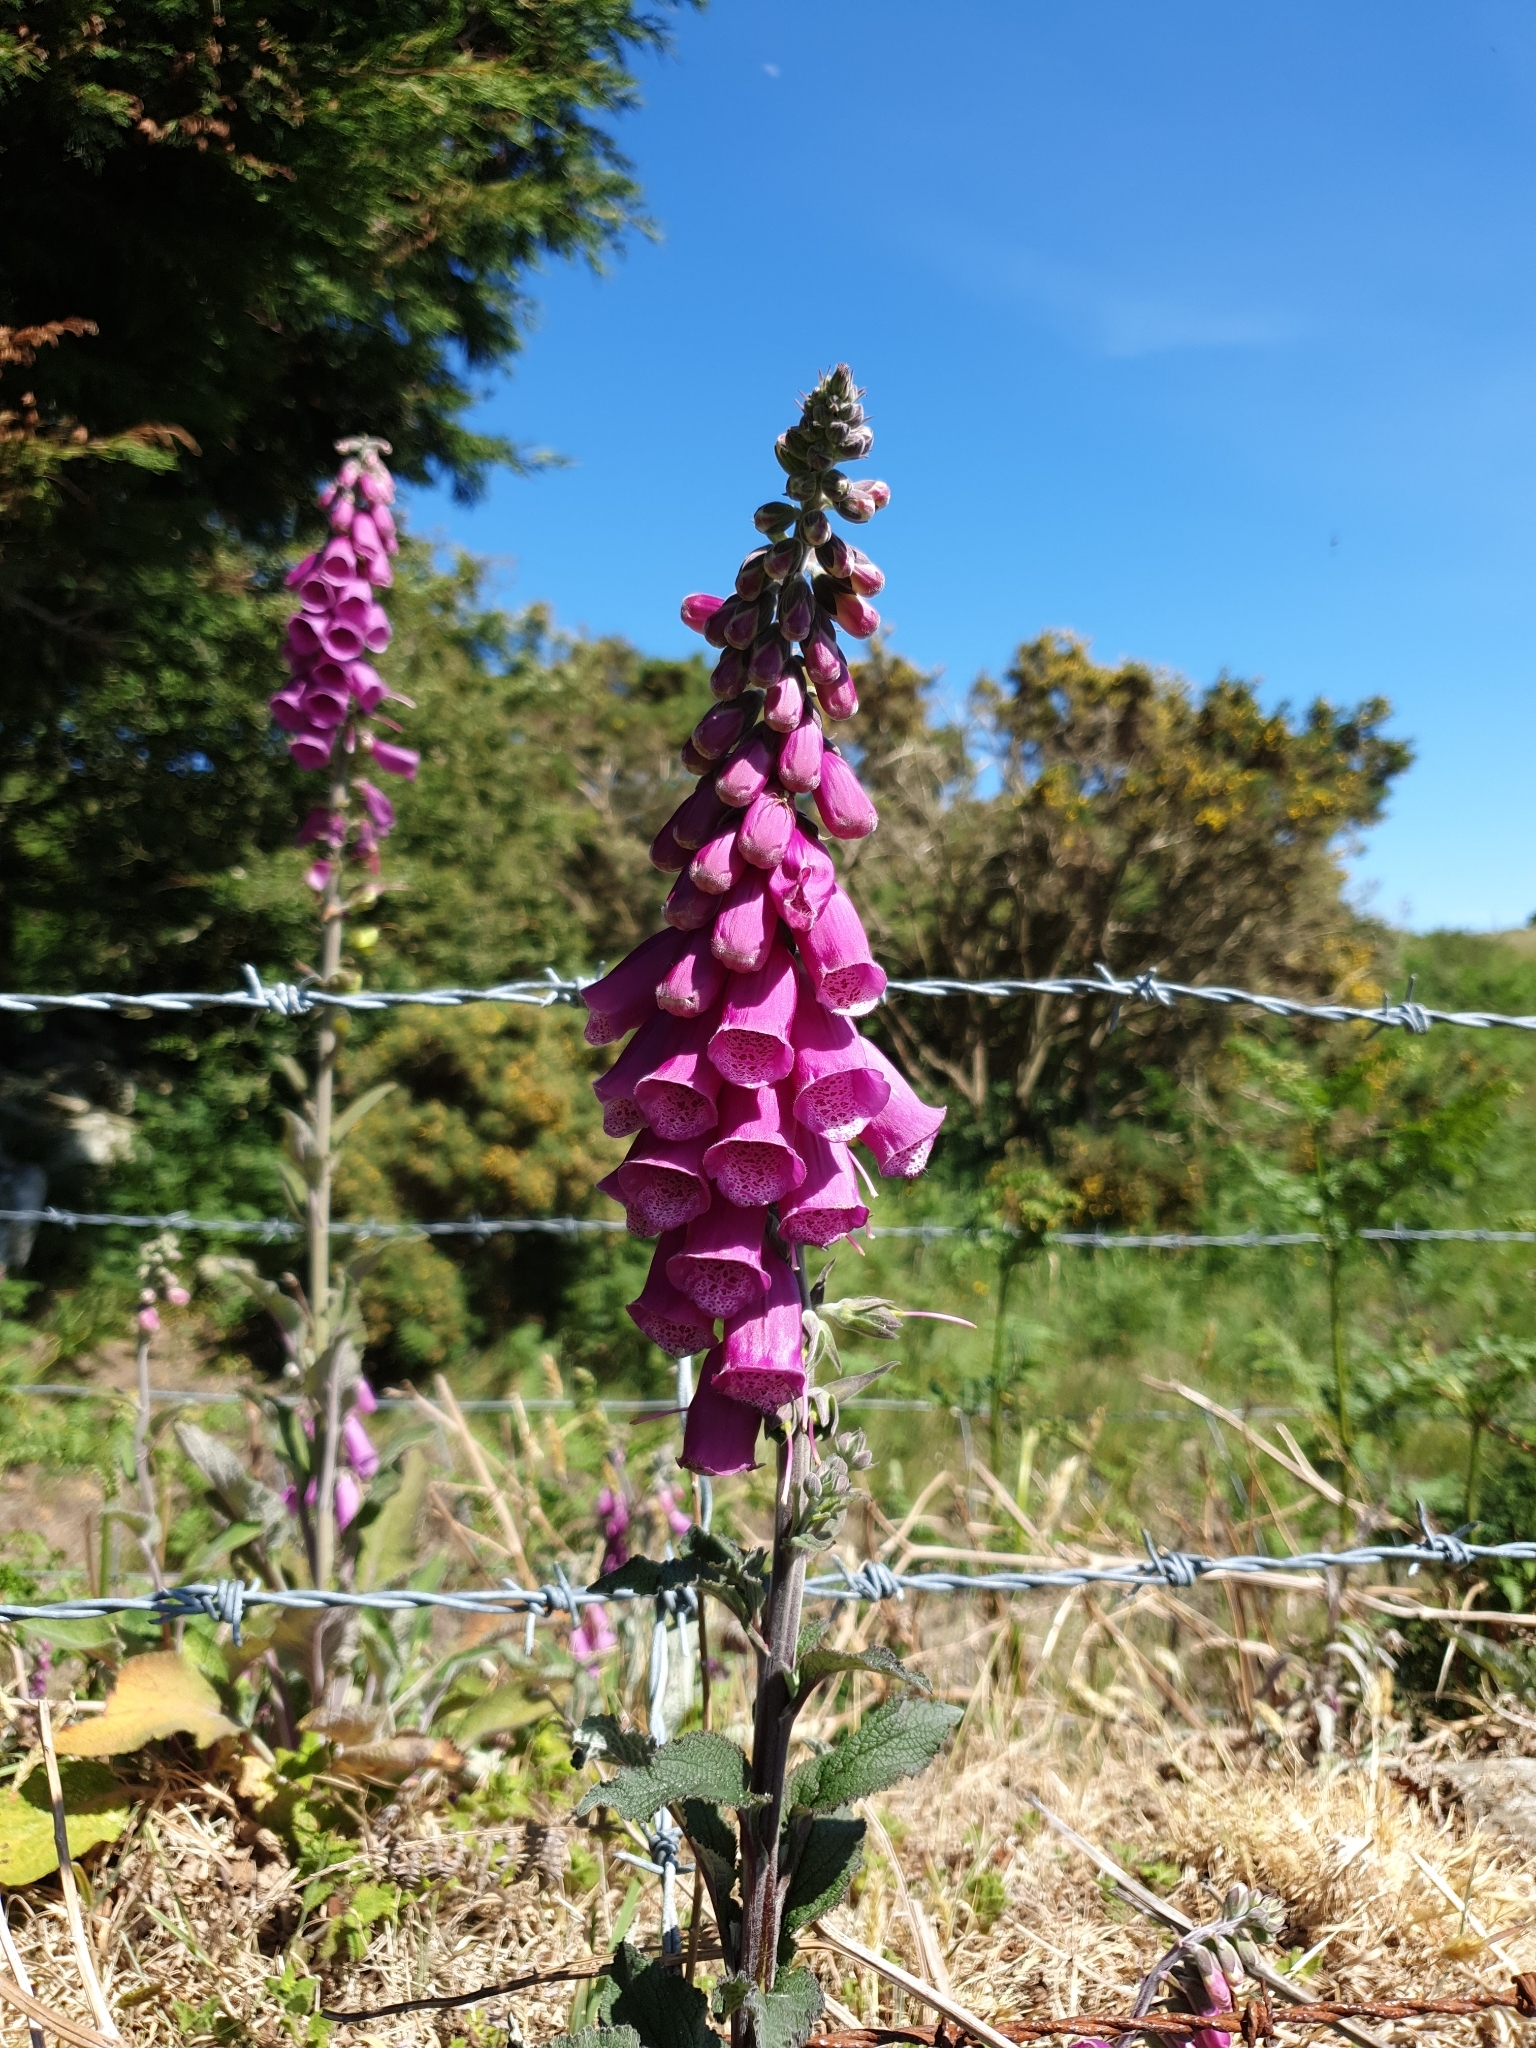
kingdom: Plantae
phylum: Tracheophyta
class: Magnoliopsida
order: Lamiales
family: Plantaginaceae
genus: Digitalis
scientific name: Digitalis purpurea
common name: Foxglove
